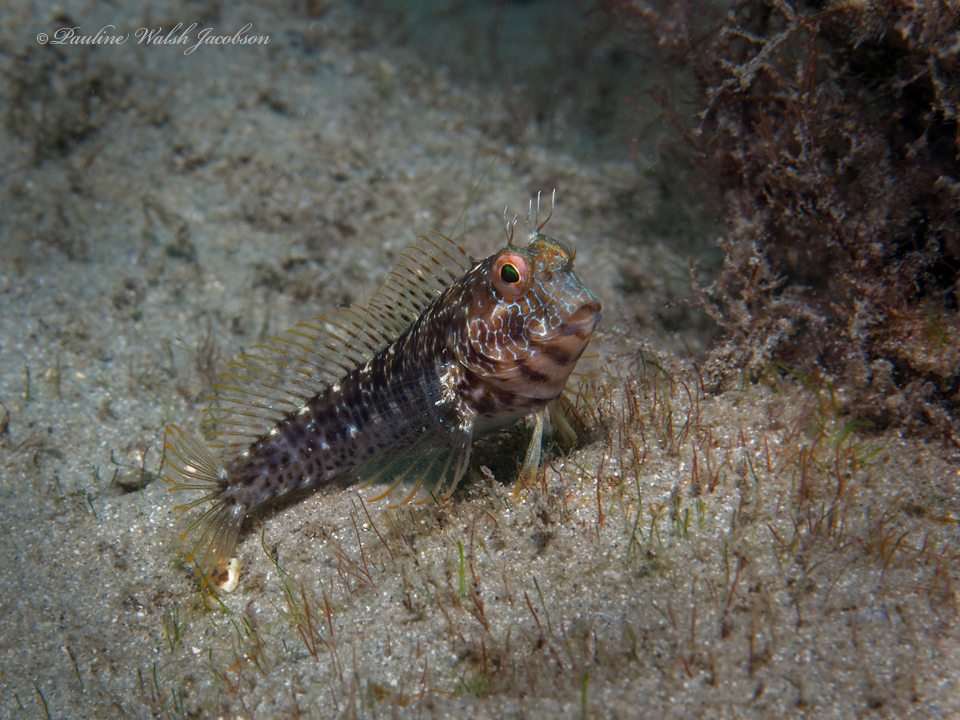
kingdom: Animalia
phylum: Chordata
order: Perciformes
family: Blenniidae
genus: Parablennius
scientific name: Parablennius marmoreus
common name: Seaweed blenny
